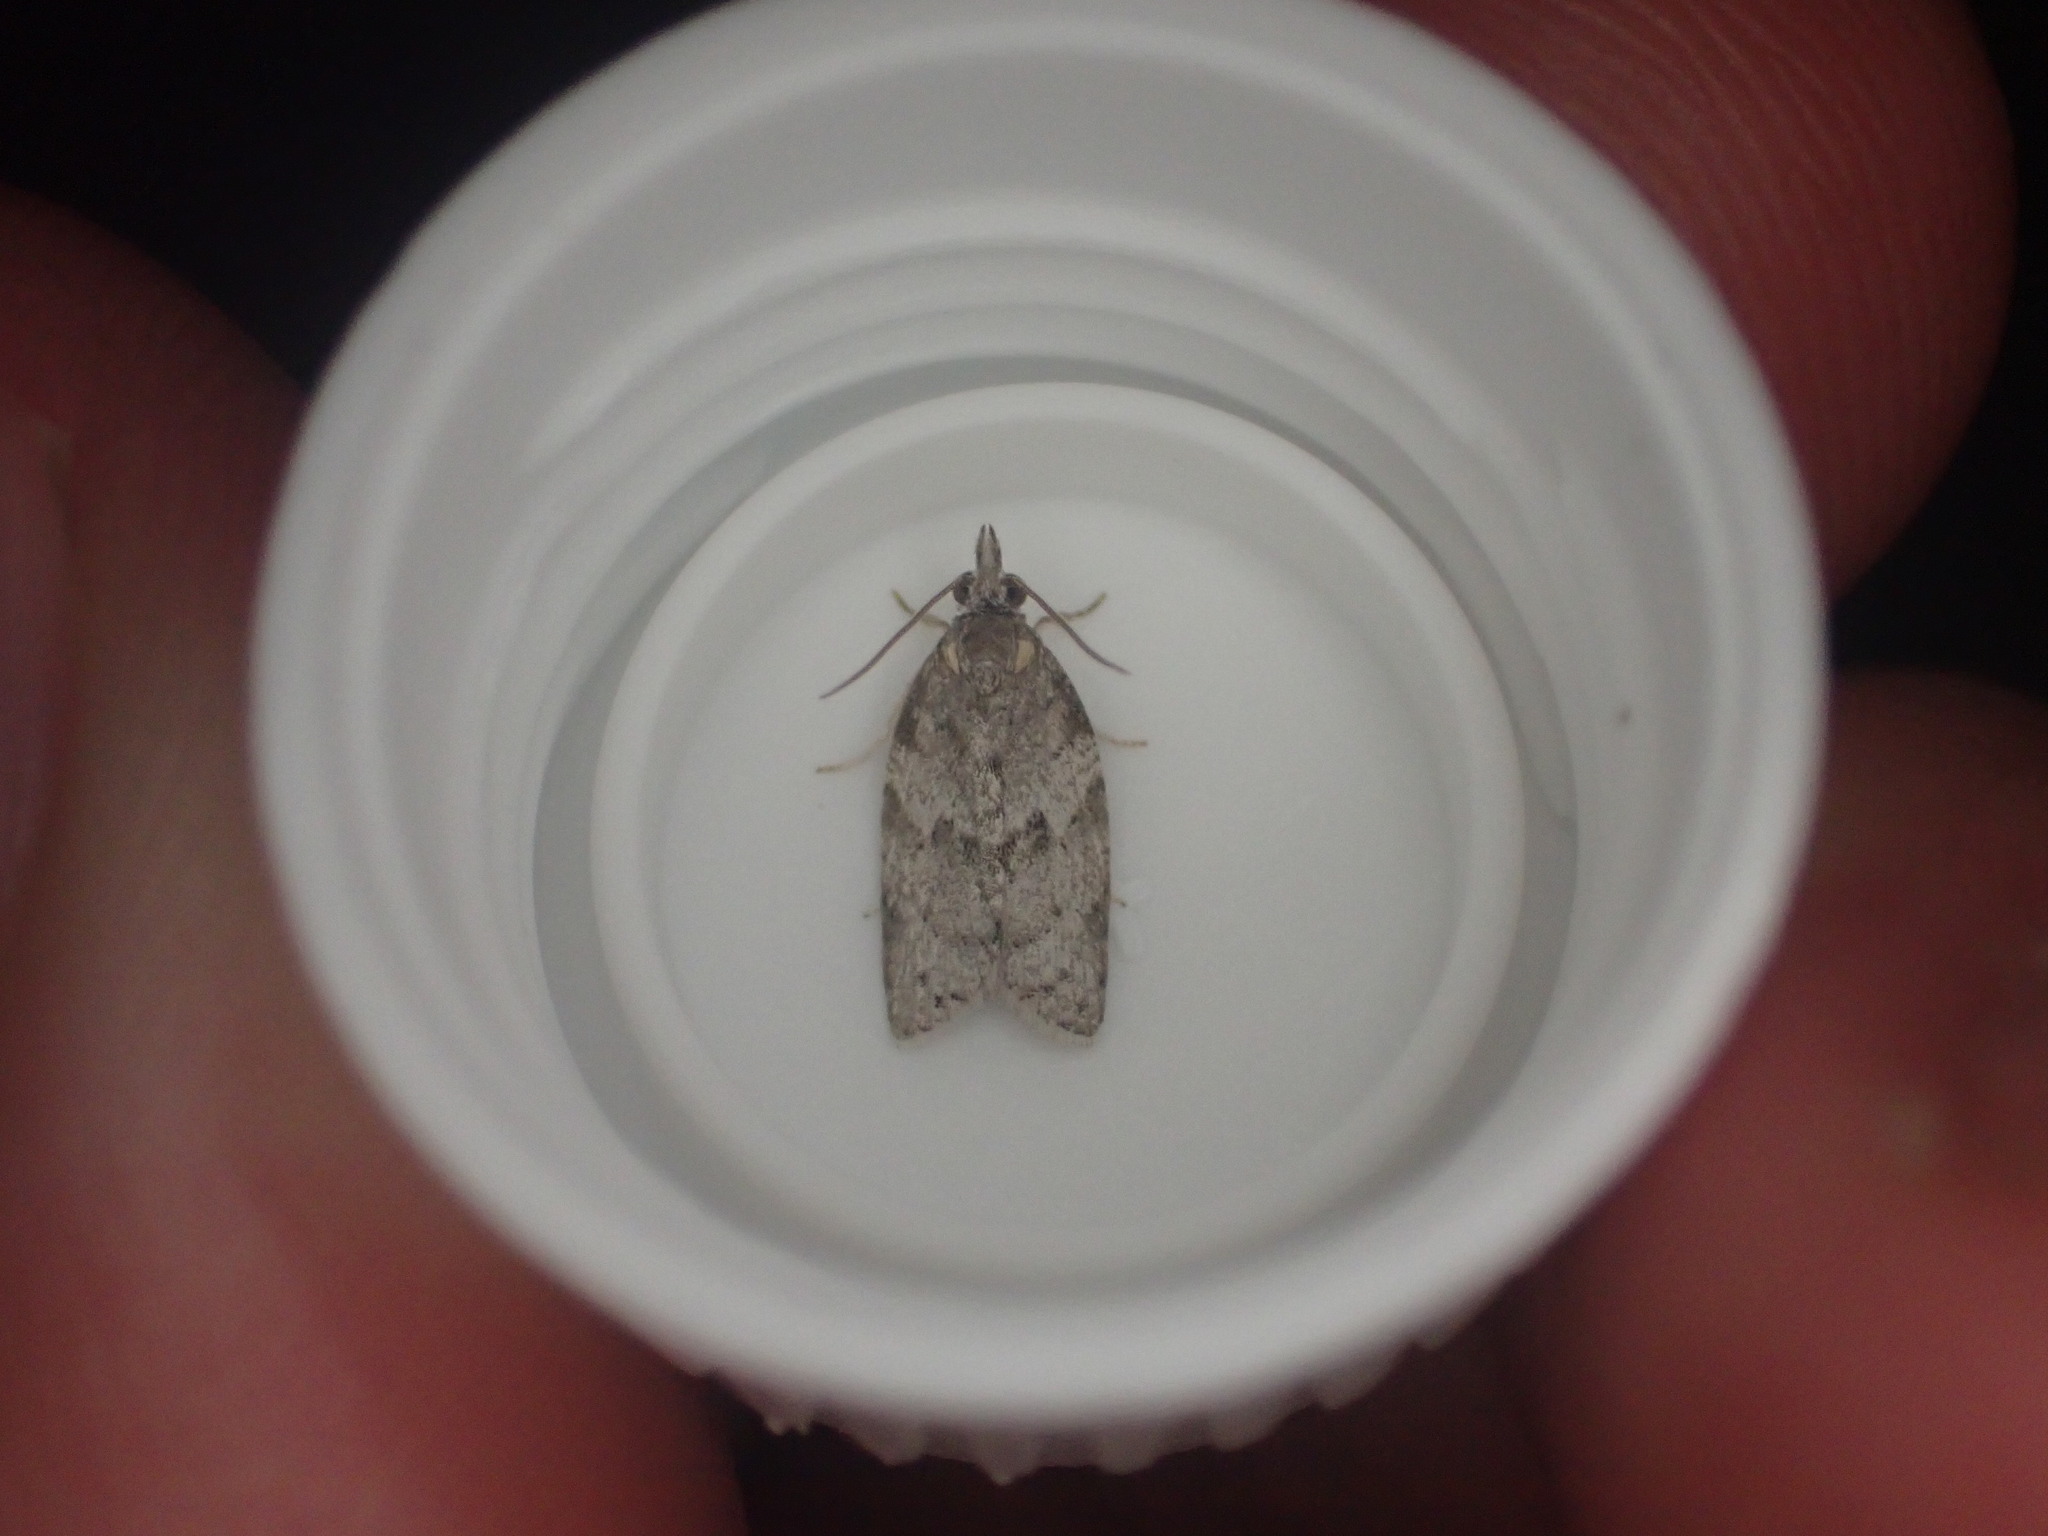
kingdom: Animalia
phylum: Arthropoda
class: Insecta
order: Lepidoptera
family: Tortricidae
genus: Isotenes
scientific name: Isotenes miserana
